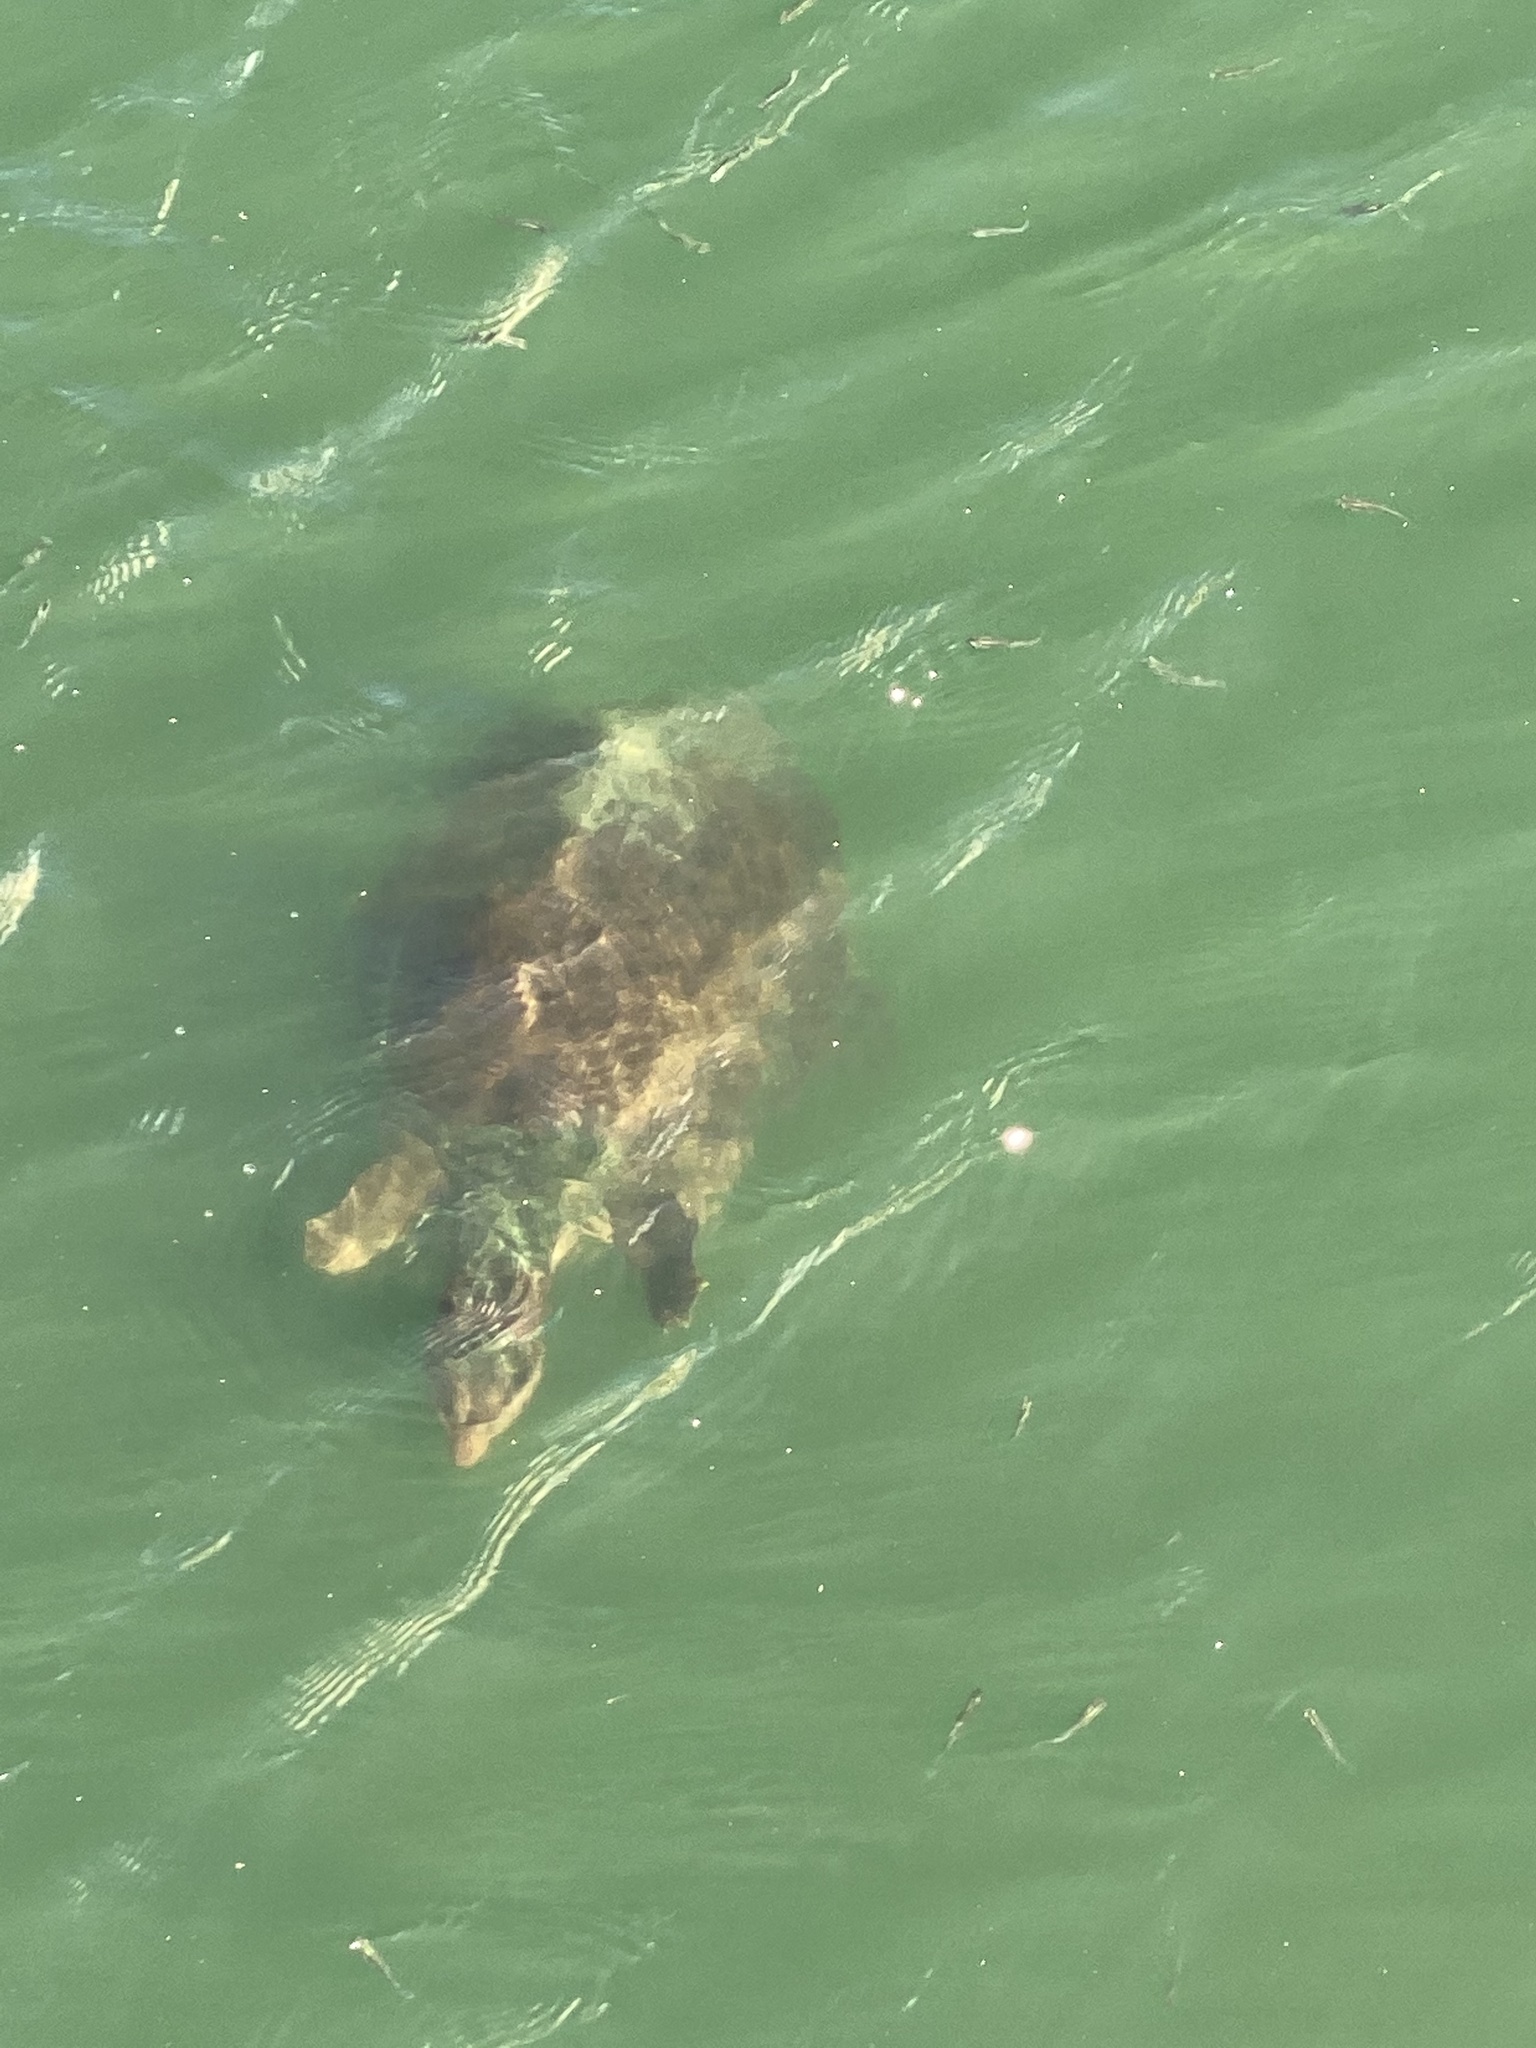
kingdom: Animalia
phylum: Chordata
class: Testudines
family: Trionychidae
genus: Apalone
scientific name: Apalone ferox
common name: Florida softshell turtle
